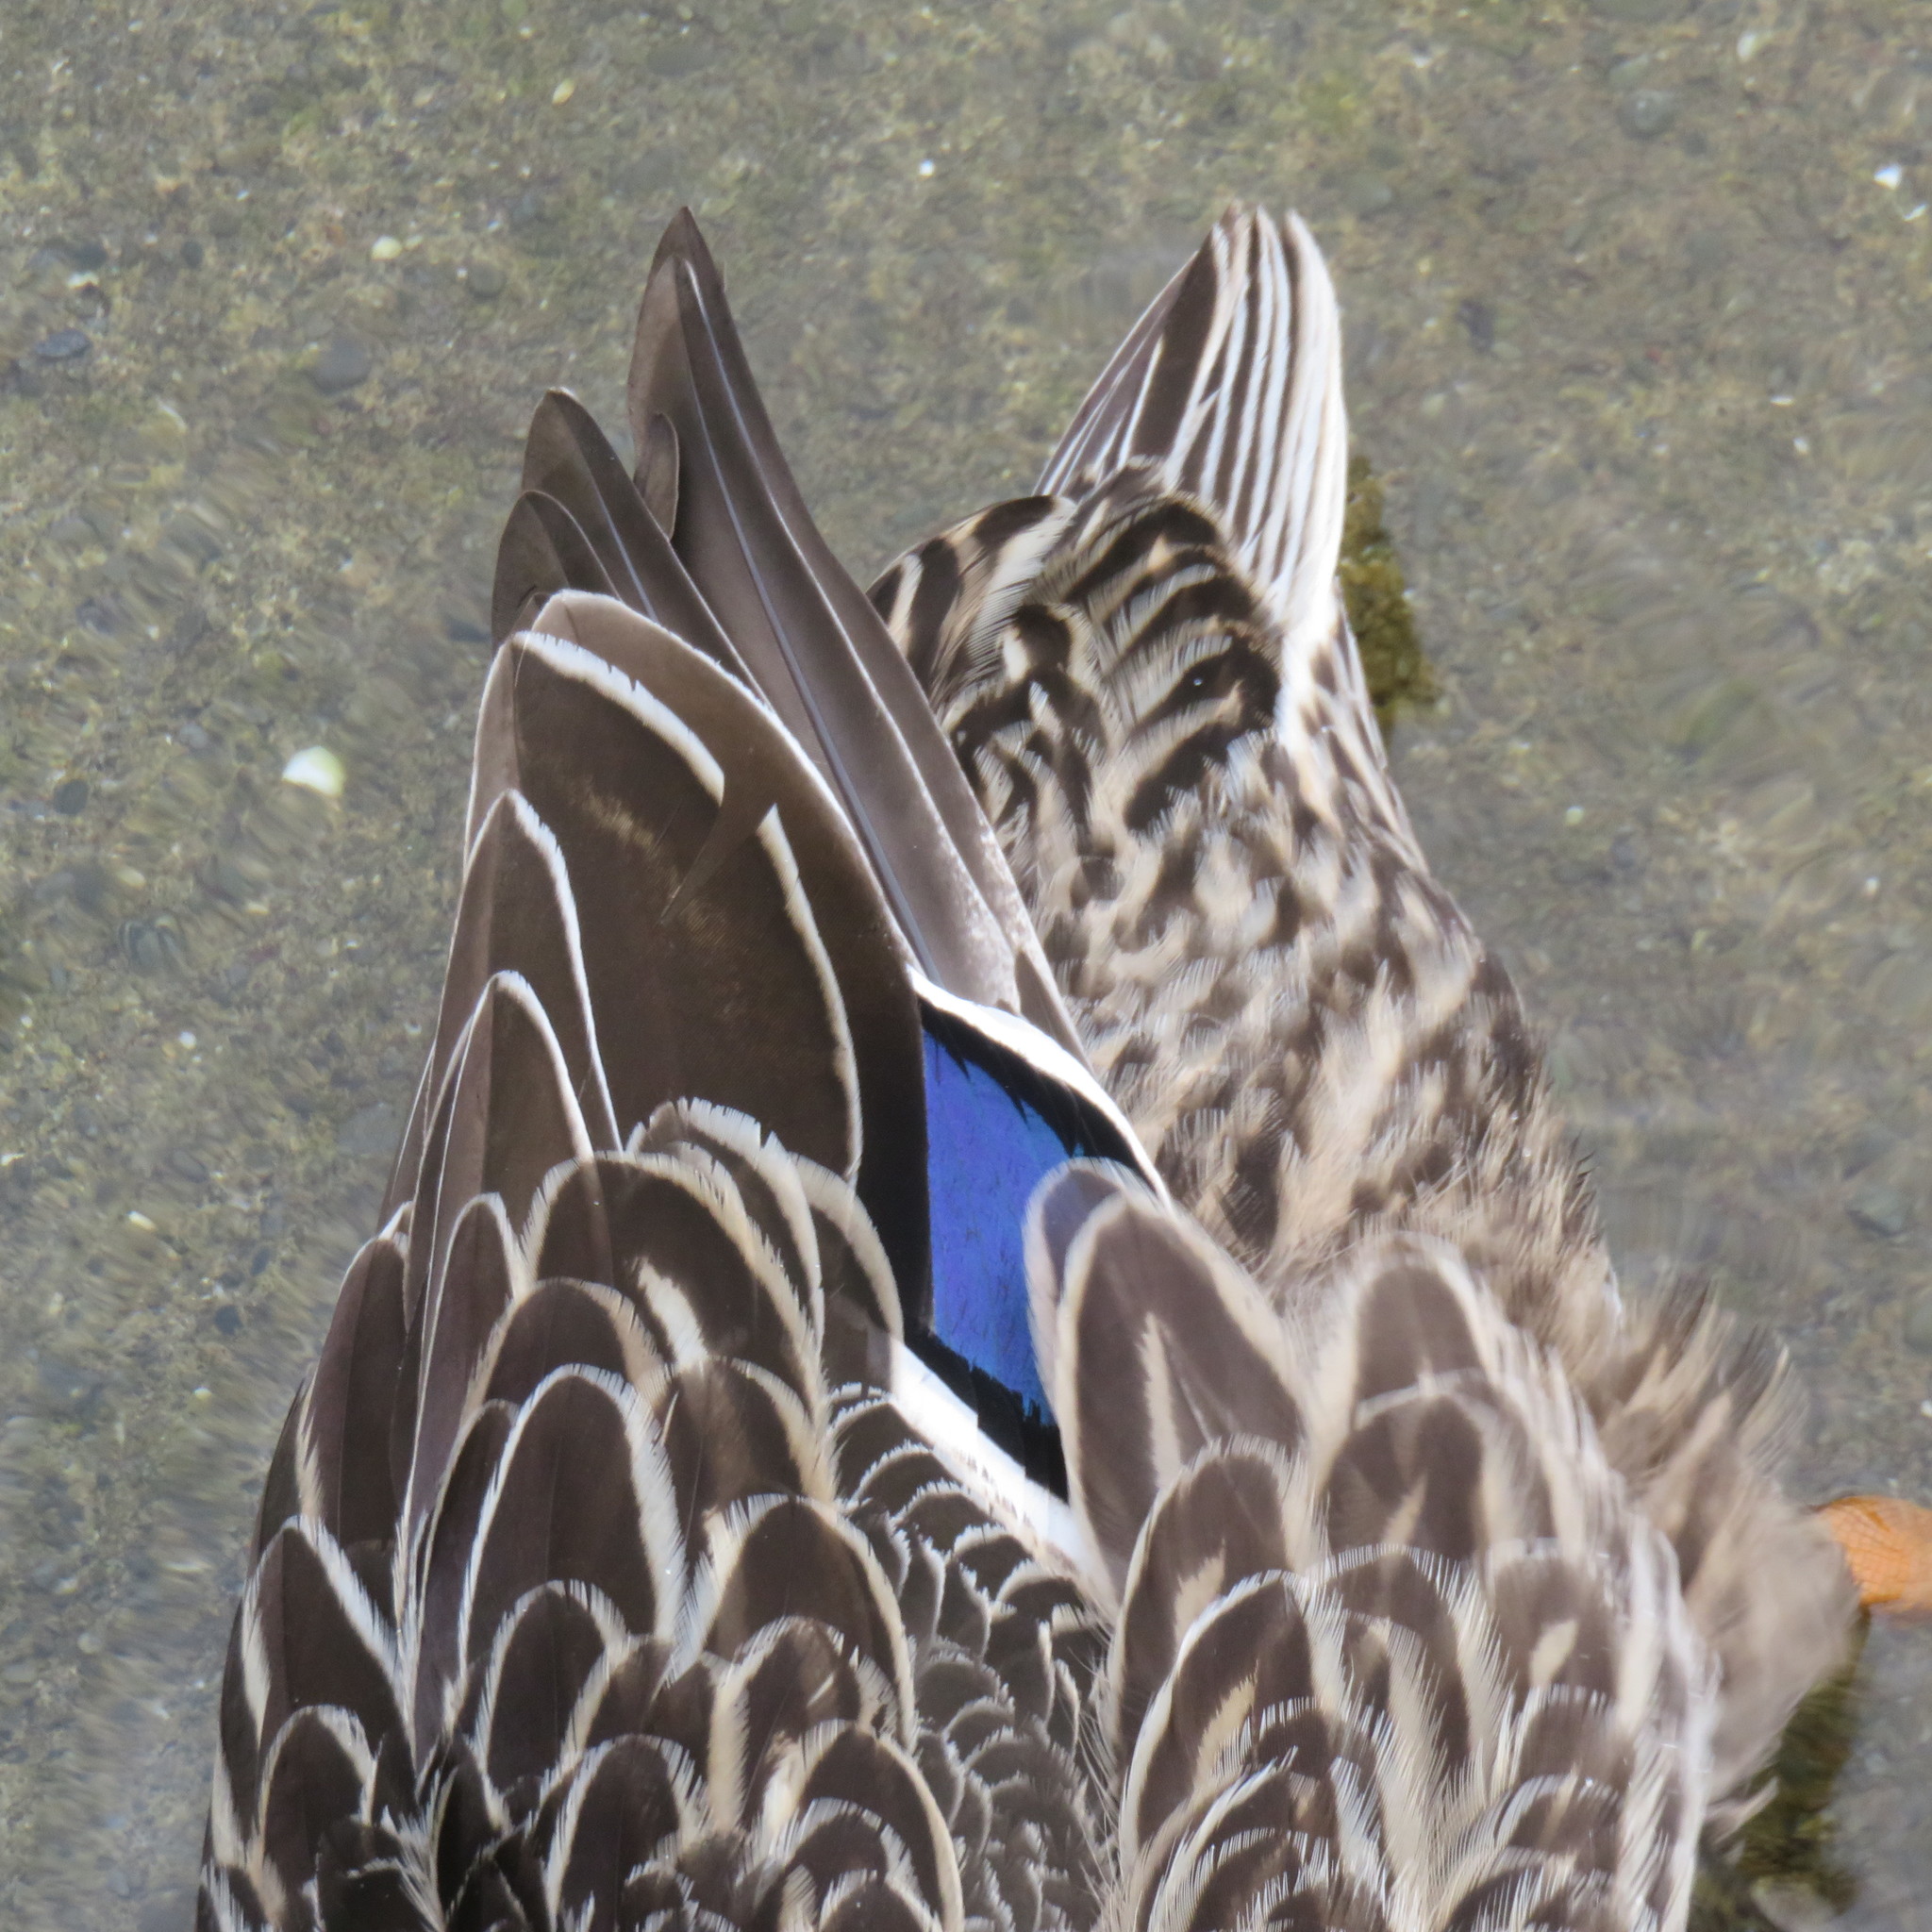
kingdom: Animalia
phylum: Chordata
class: Aves
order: Anseriformes
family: Anatidae
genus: Anas
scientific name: Anas
